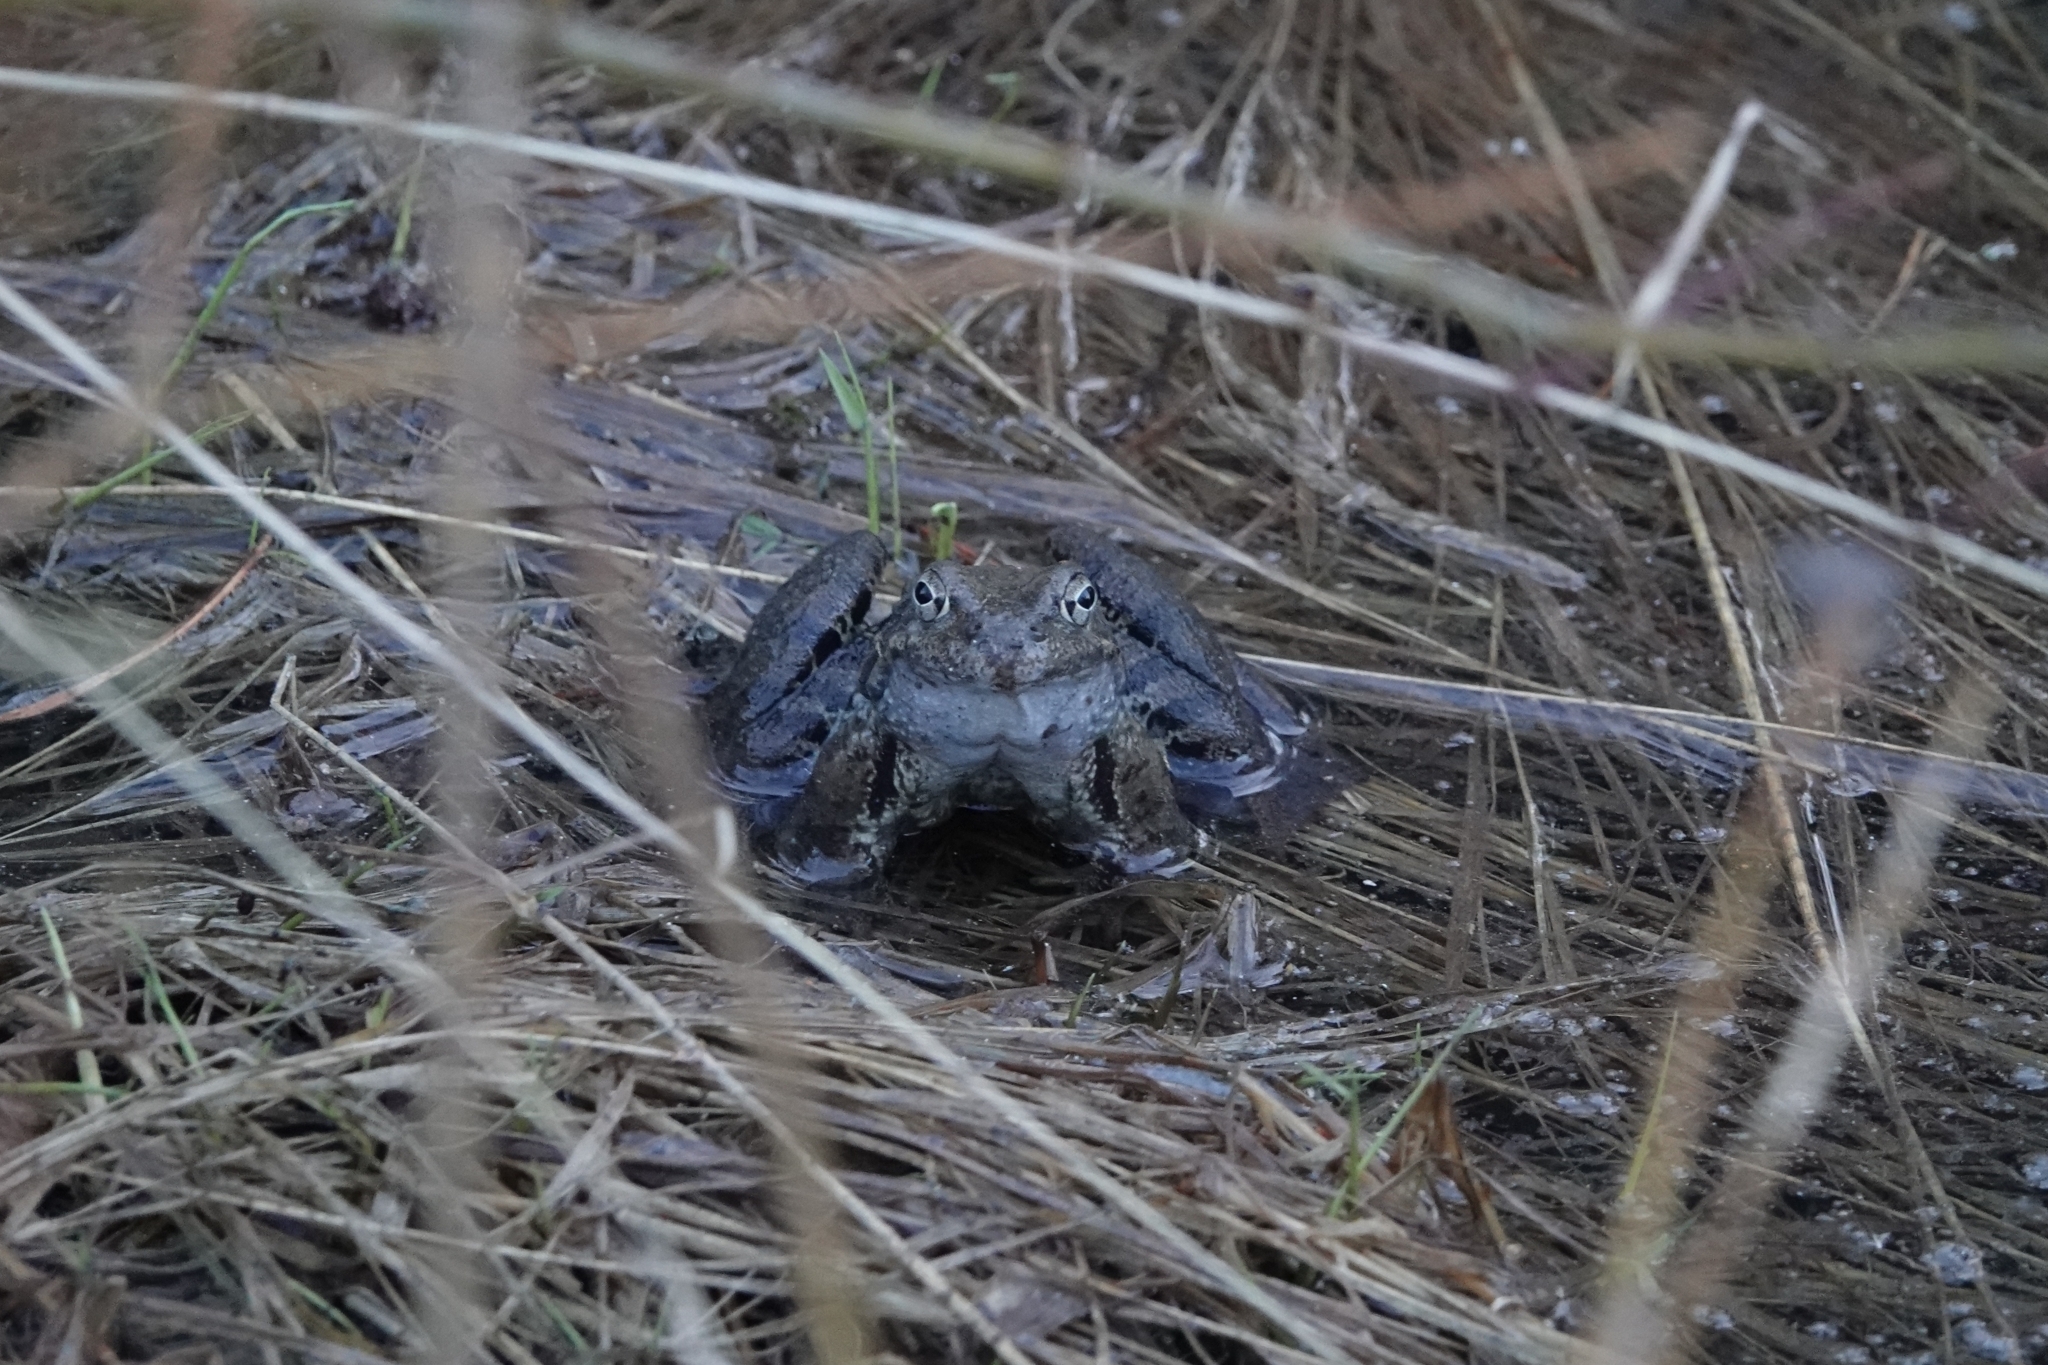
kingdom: Animalia
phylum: Chordata
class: Amphibia
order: Anura
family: Ranidae
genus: Rana
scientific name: Rana temporaria
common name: Common frog
